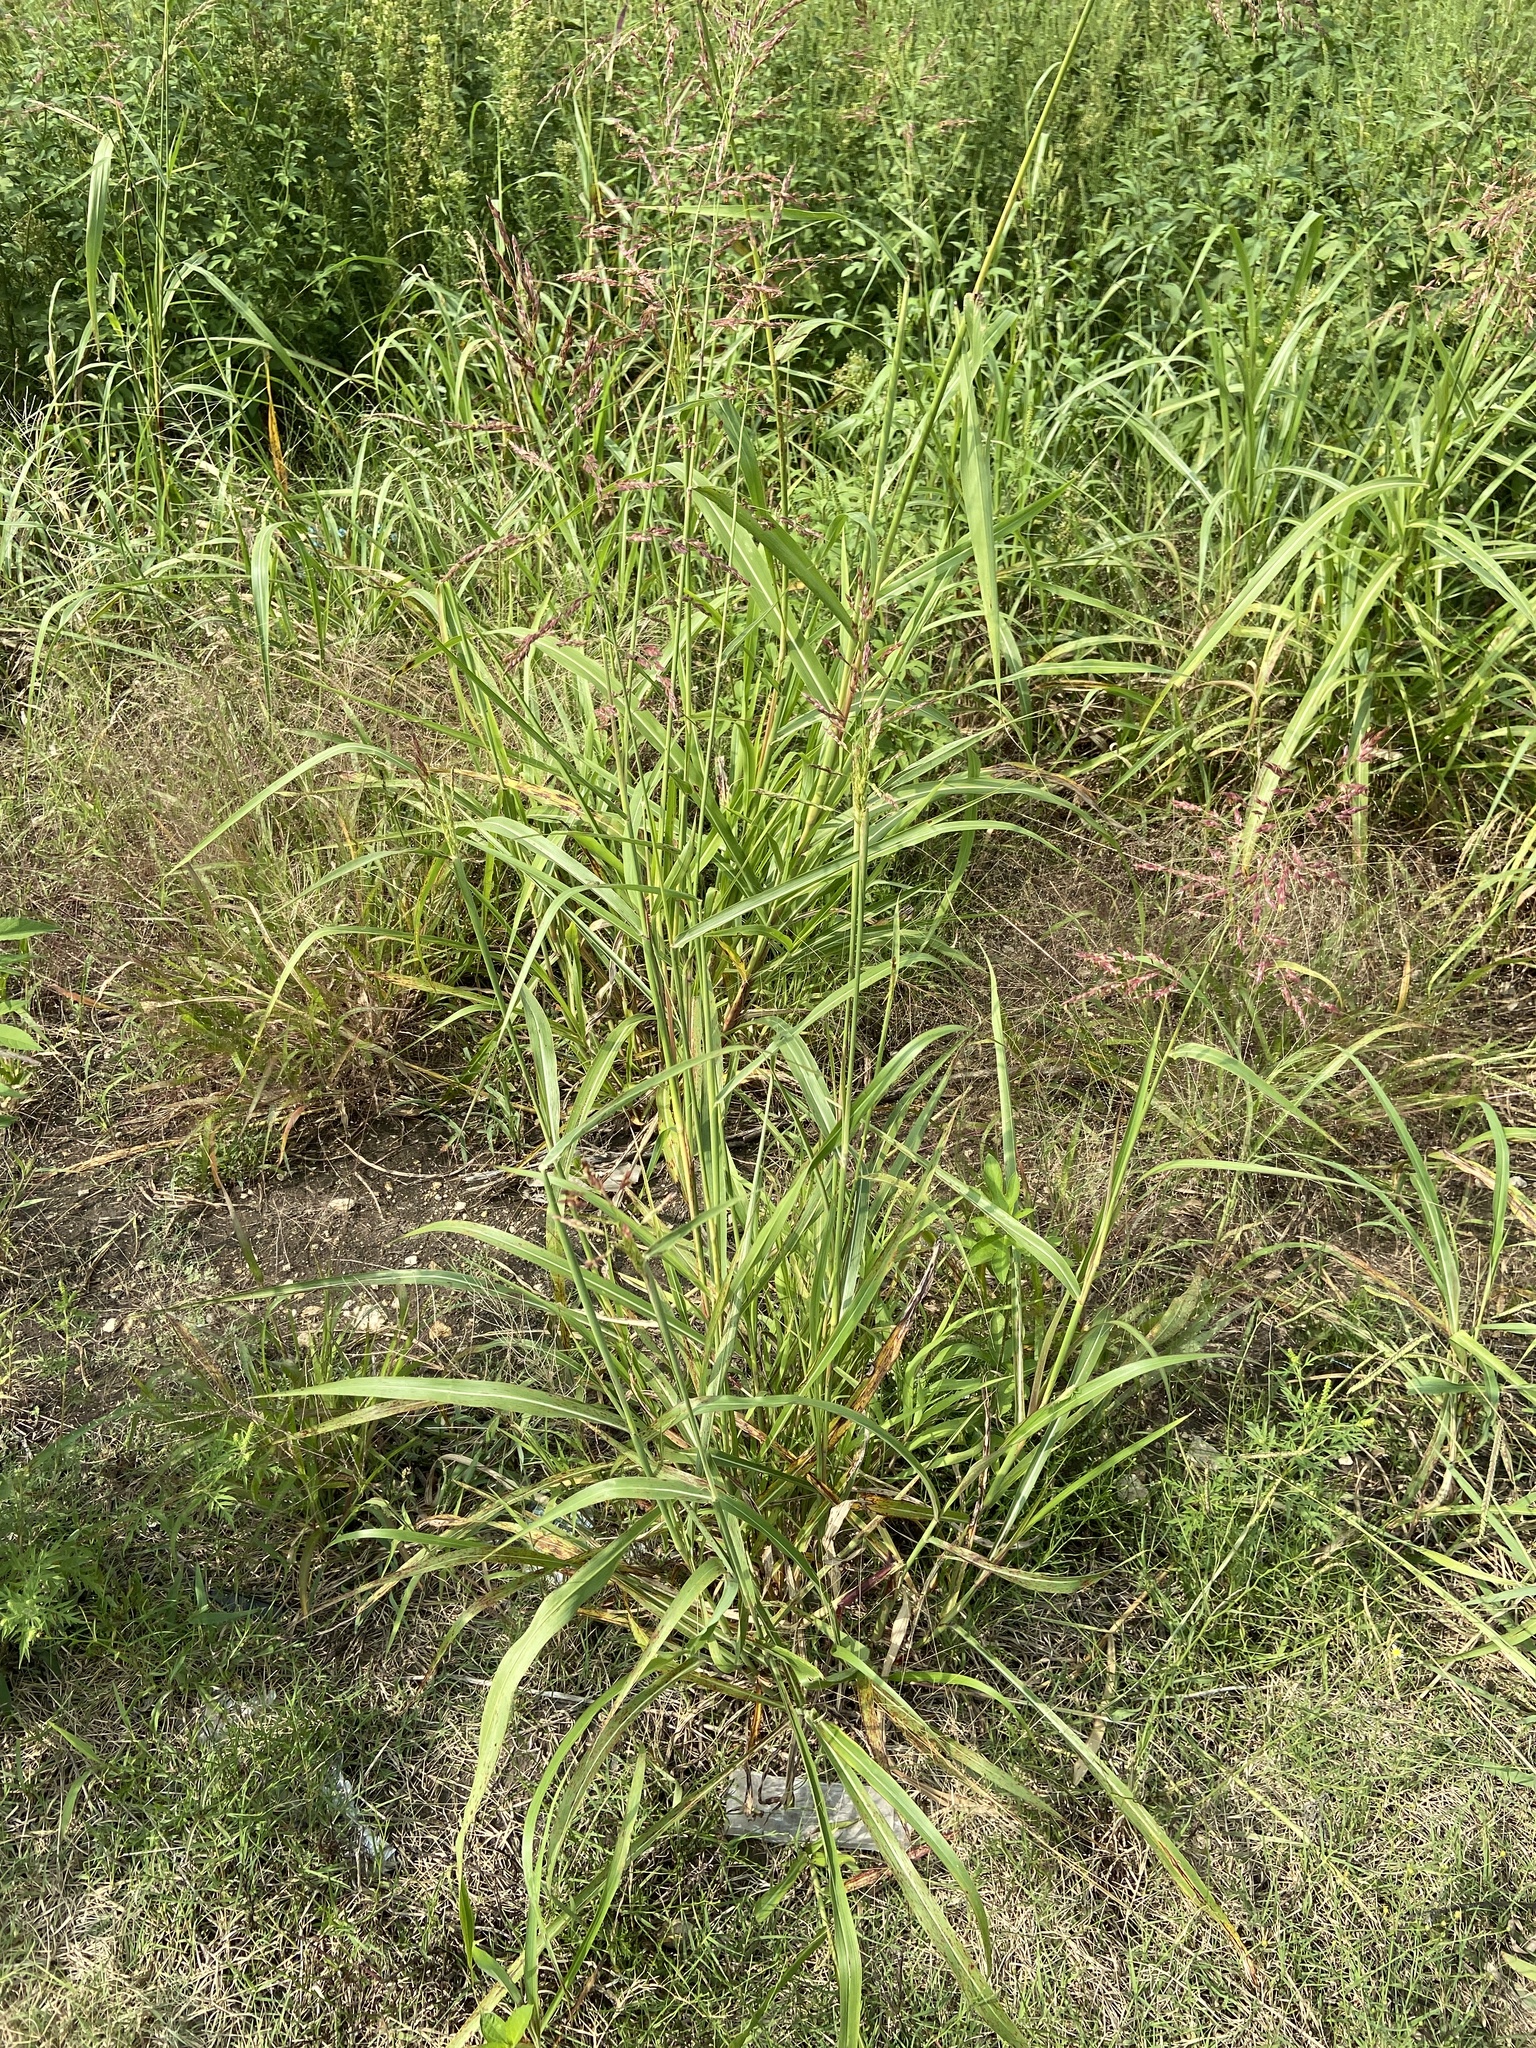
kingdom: Plantae
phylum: Tracheophyta
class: Liliopsida
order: Poales
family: Poaceae
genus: Sorghum
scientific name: Sorghum halepense
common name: Johnson-grass
